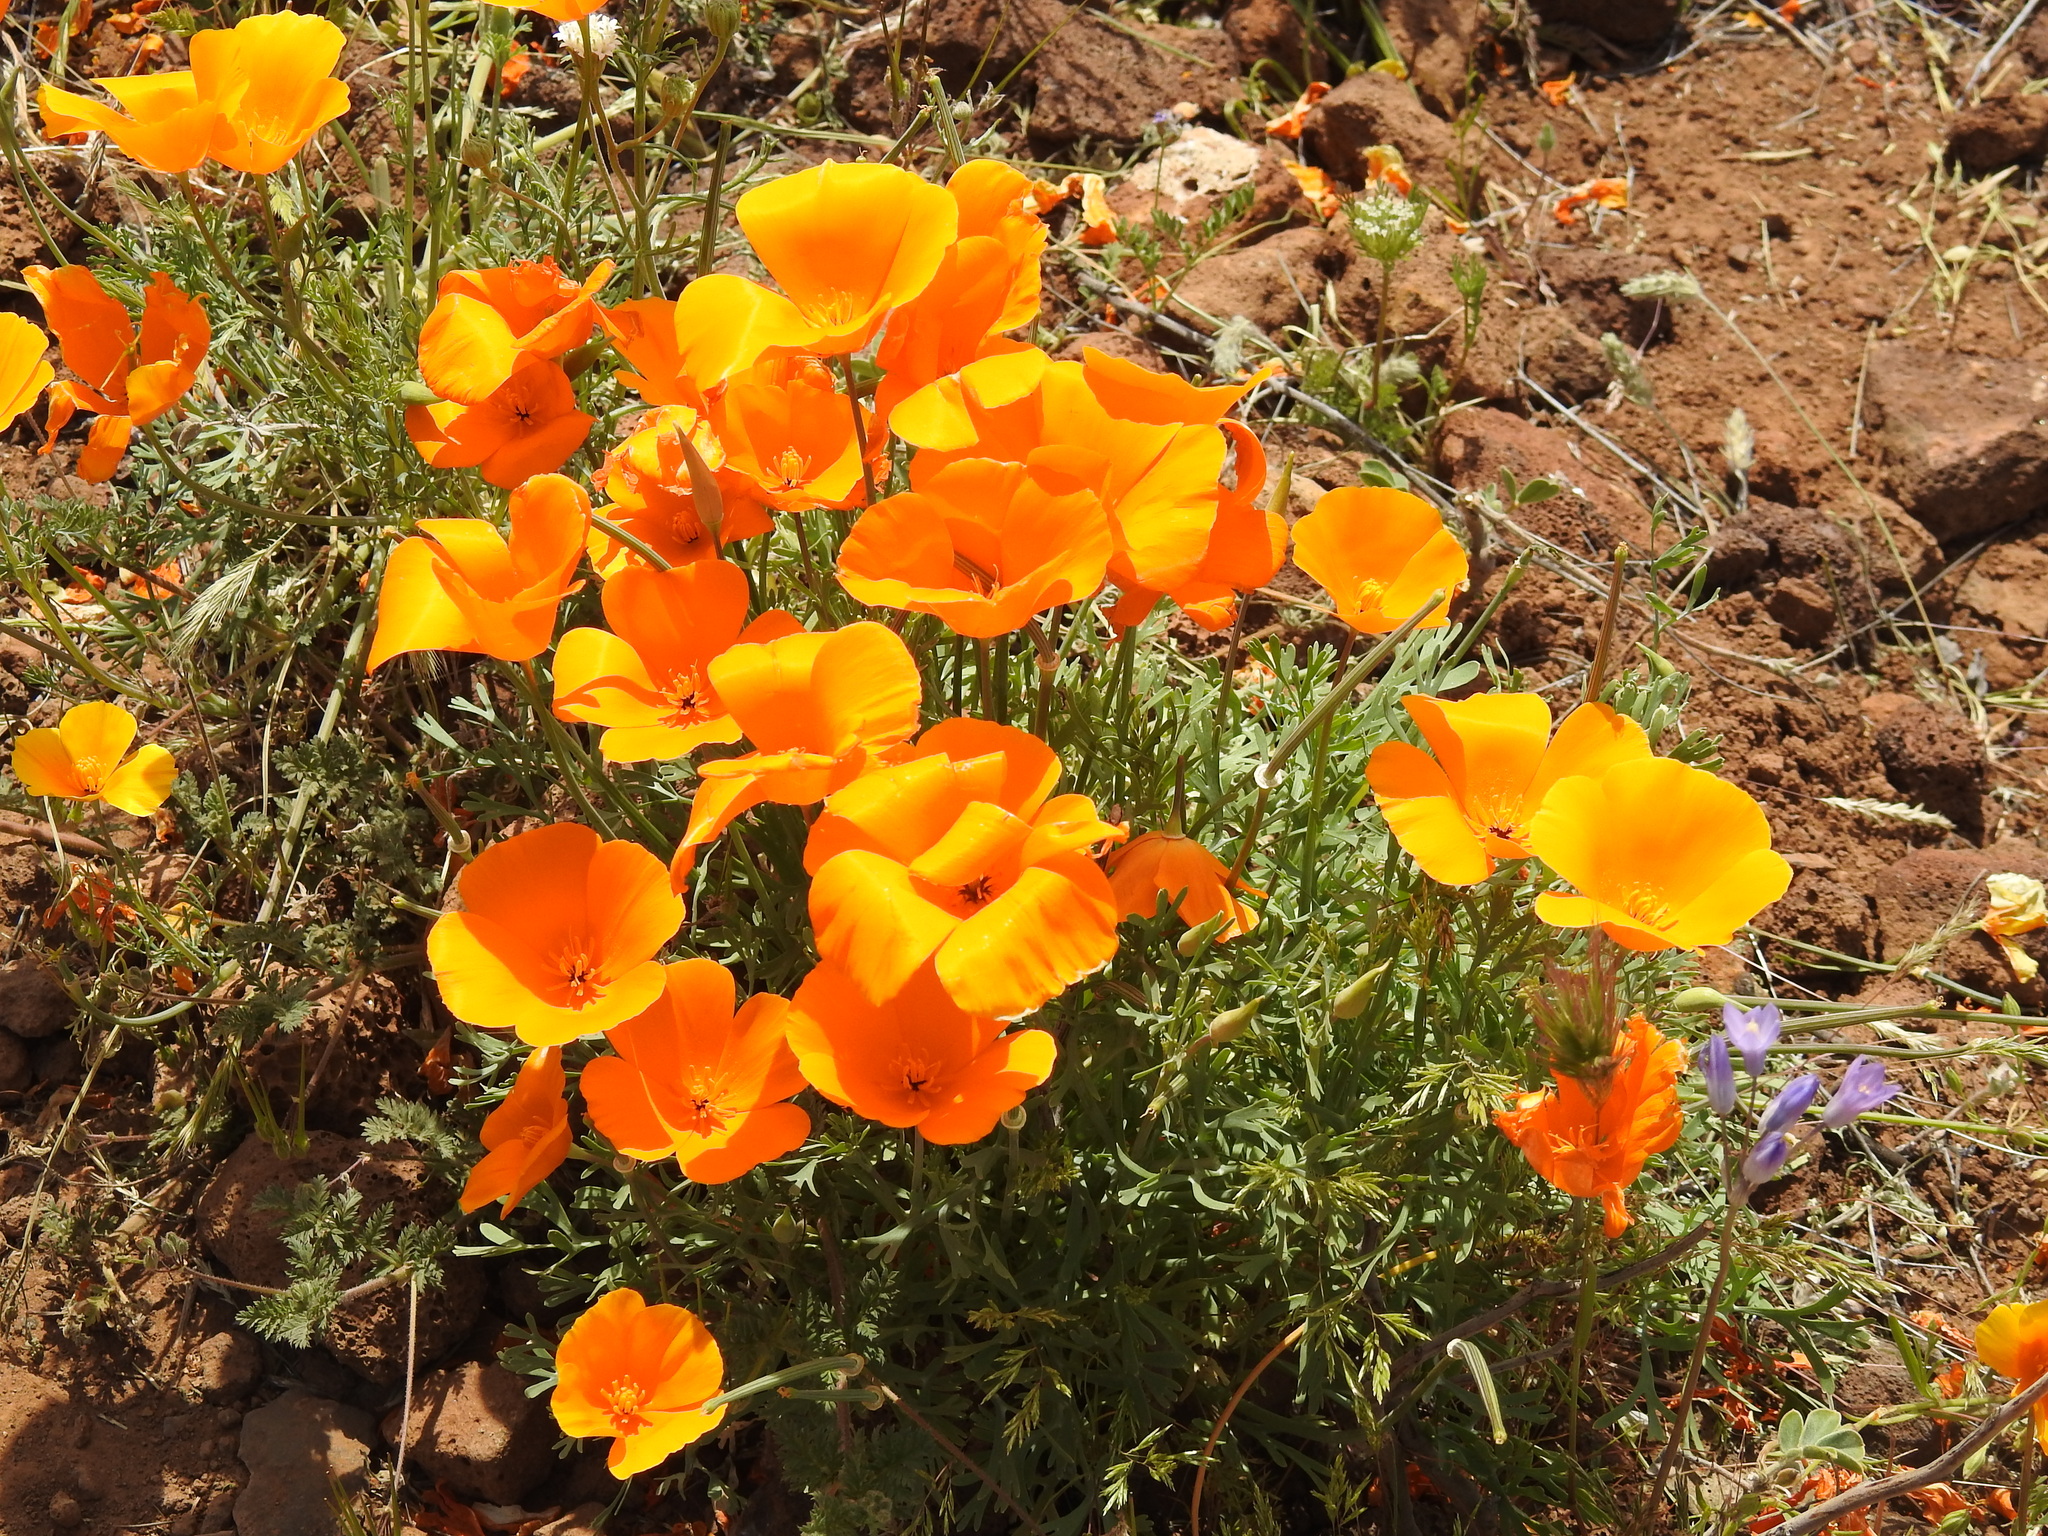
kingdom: Plantae
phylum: Tracheophyta
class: Magnoliopsida
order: Ranunculales
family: Papaveraceae
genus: Eschscholzia
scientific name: Eschscholzia californica
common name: California poppy
